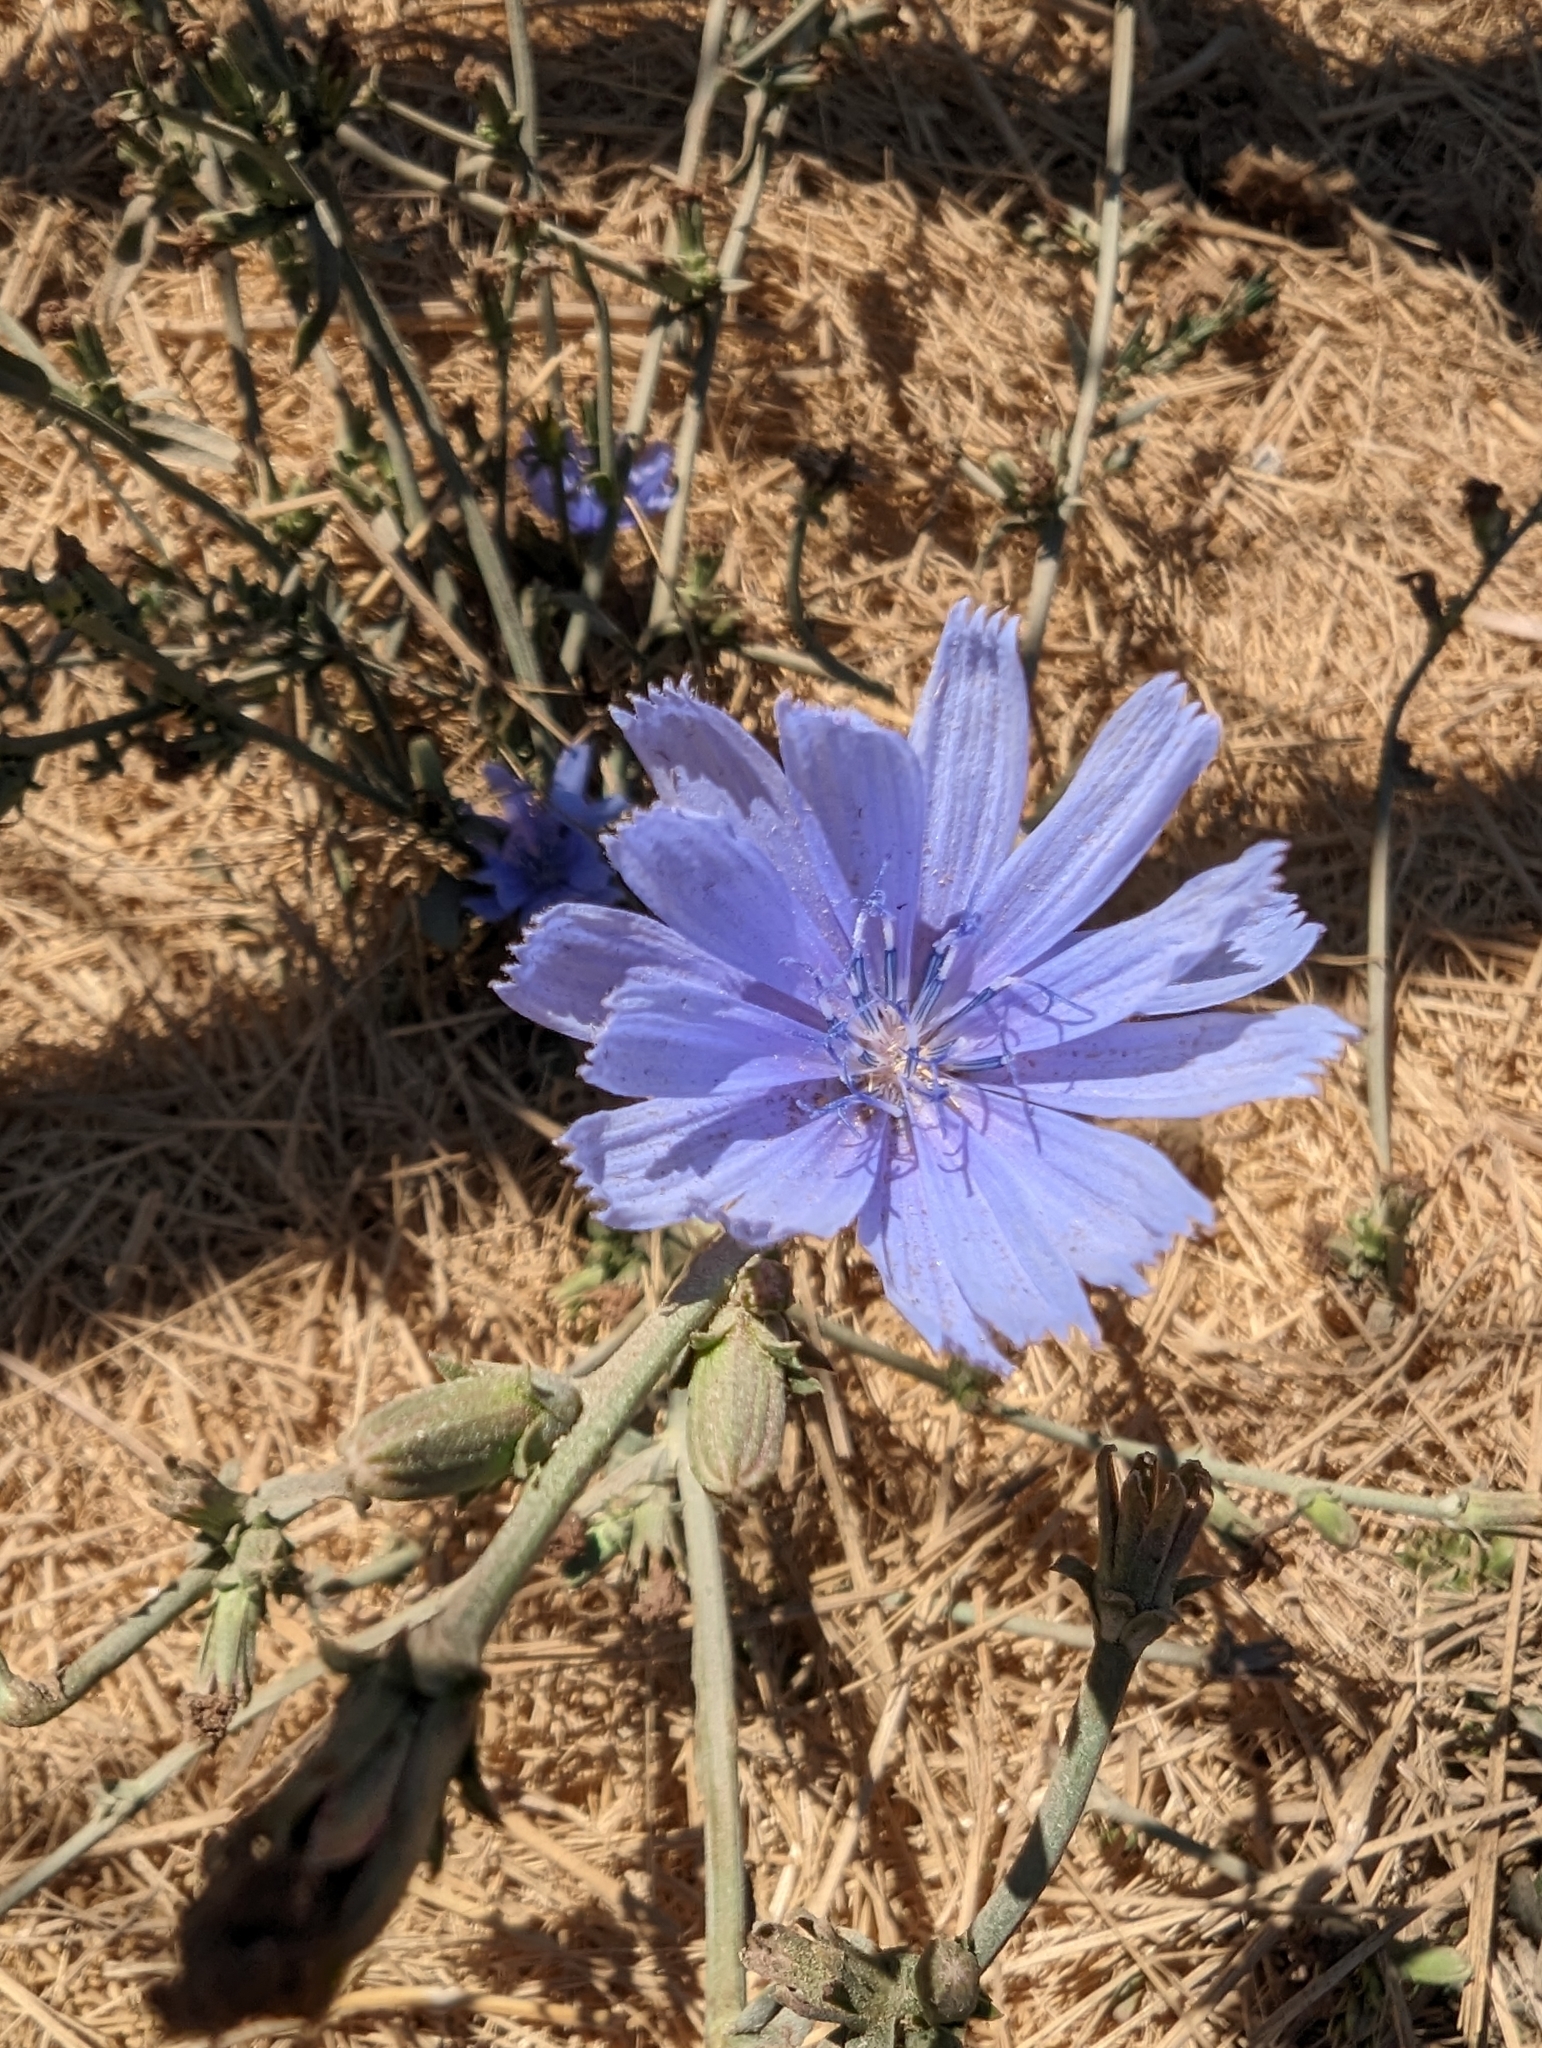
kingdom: Plantae
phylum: Tracheophyta
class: Magnoliopsida
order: Asterales
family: Asteraceae
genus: Cichorium
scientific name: Cichorium intybus
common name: Chicory
